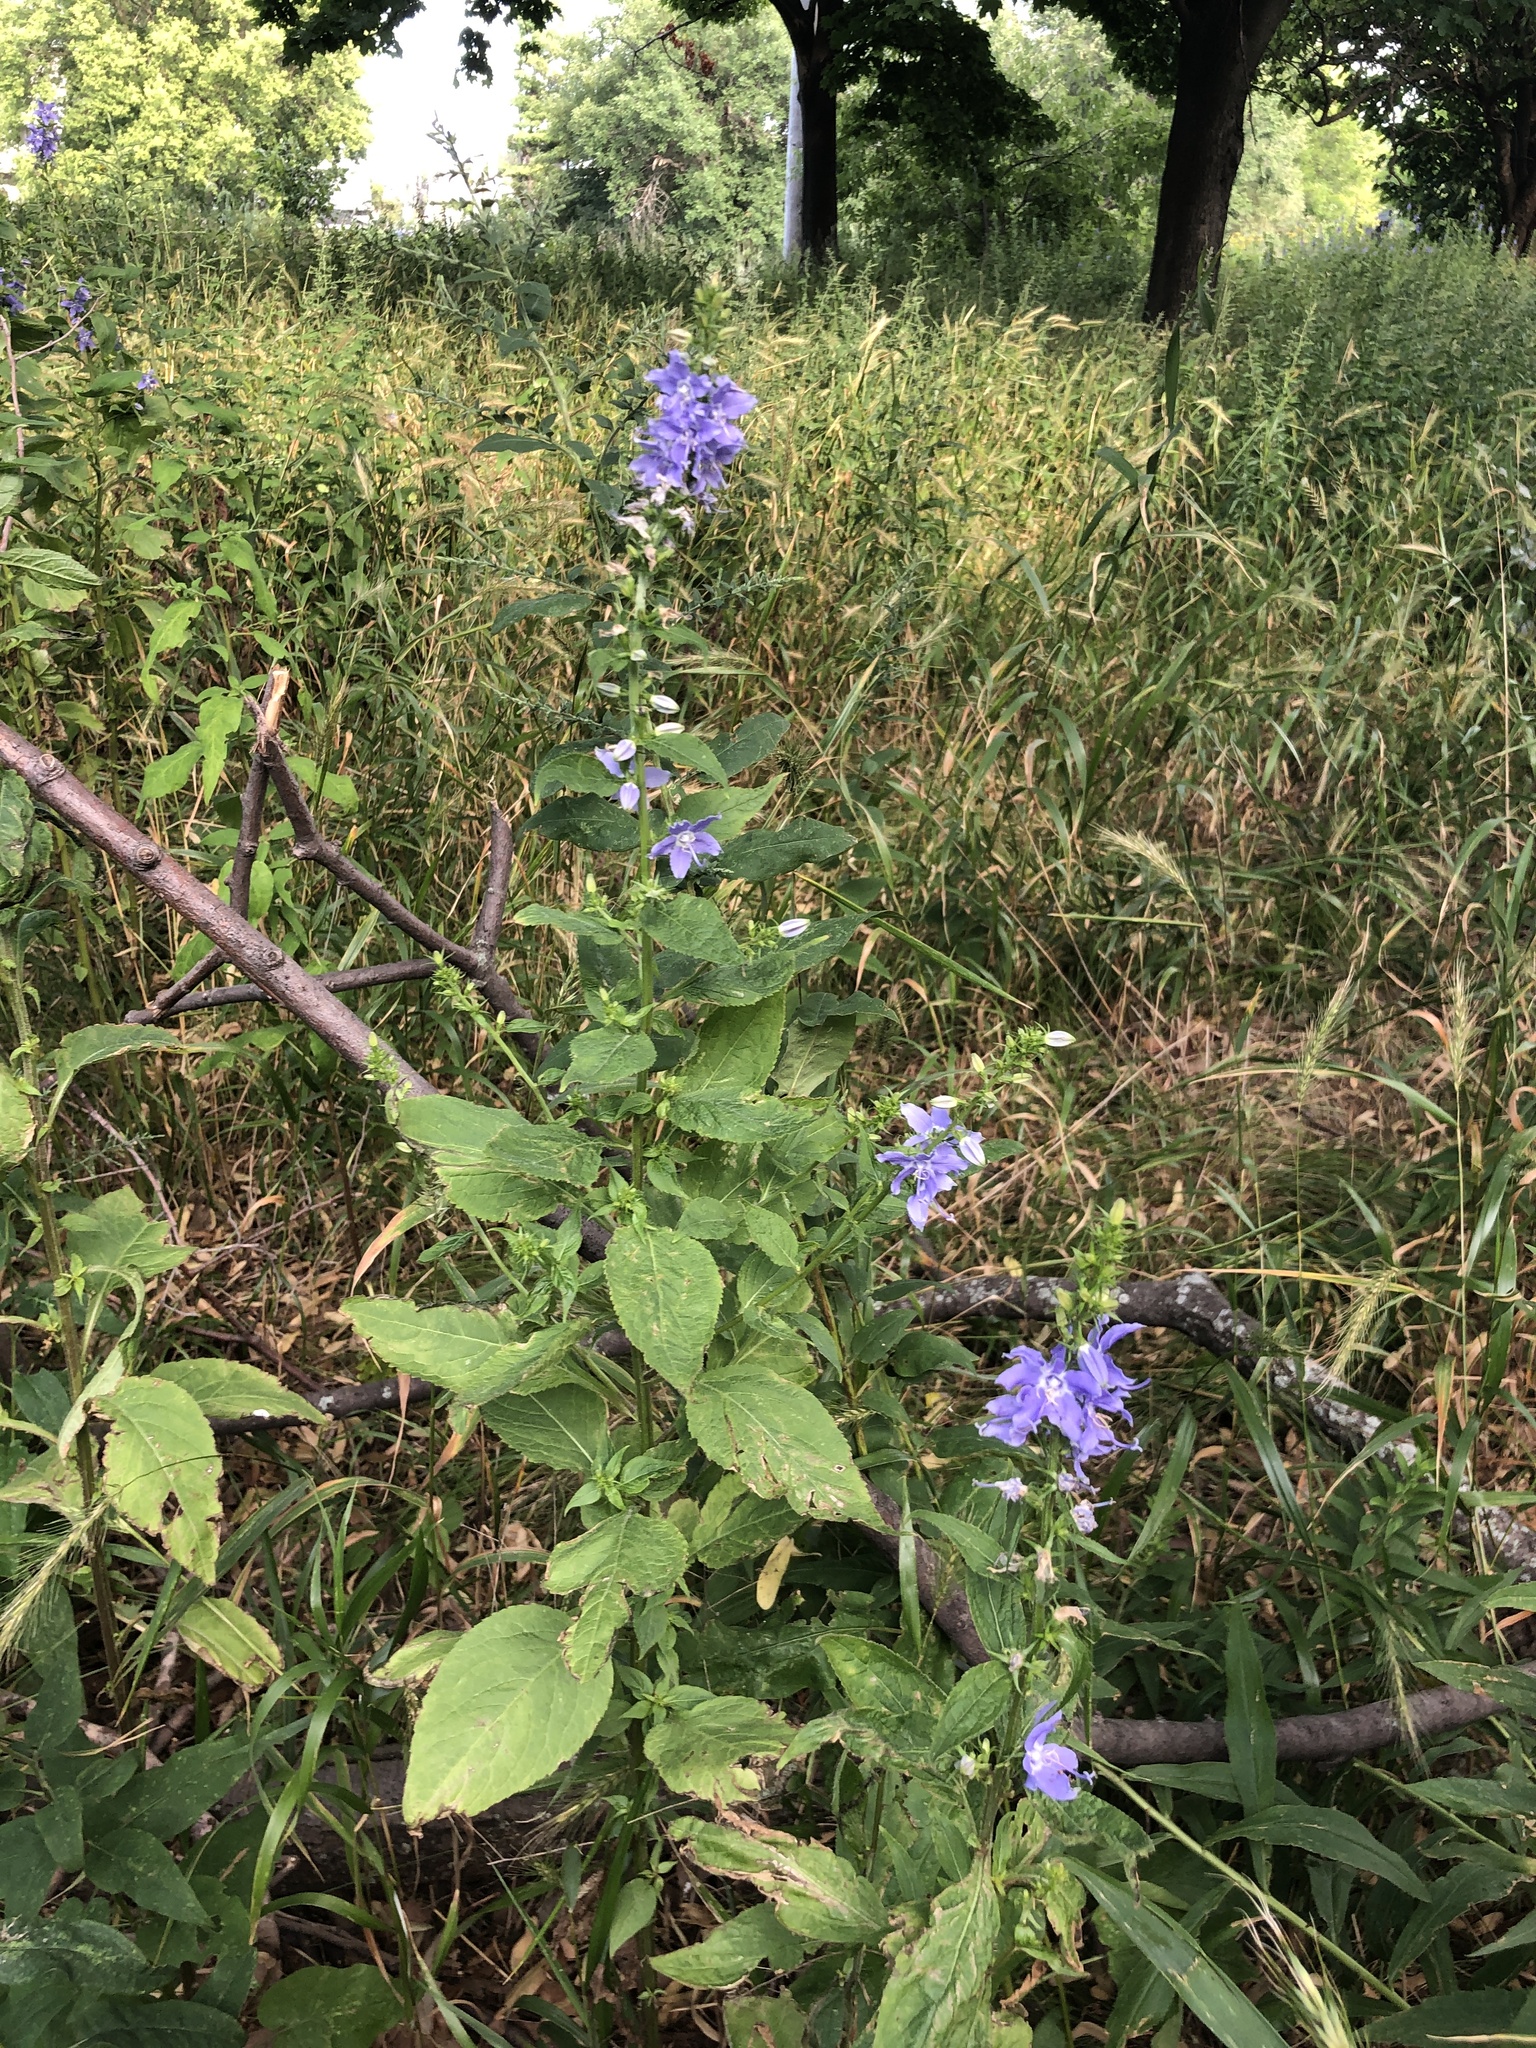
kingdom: Plantae
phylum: Tracheophyta
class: Magnoliopsida
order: Asterales
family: Campanulaceae
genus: Campanulastrum
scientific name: Campanulastrum americanum
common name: American bellflower
